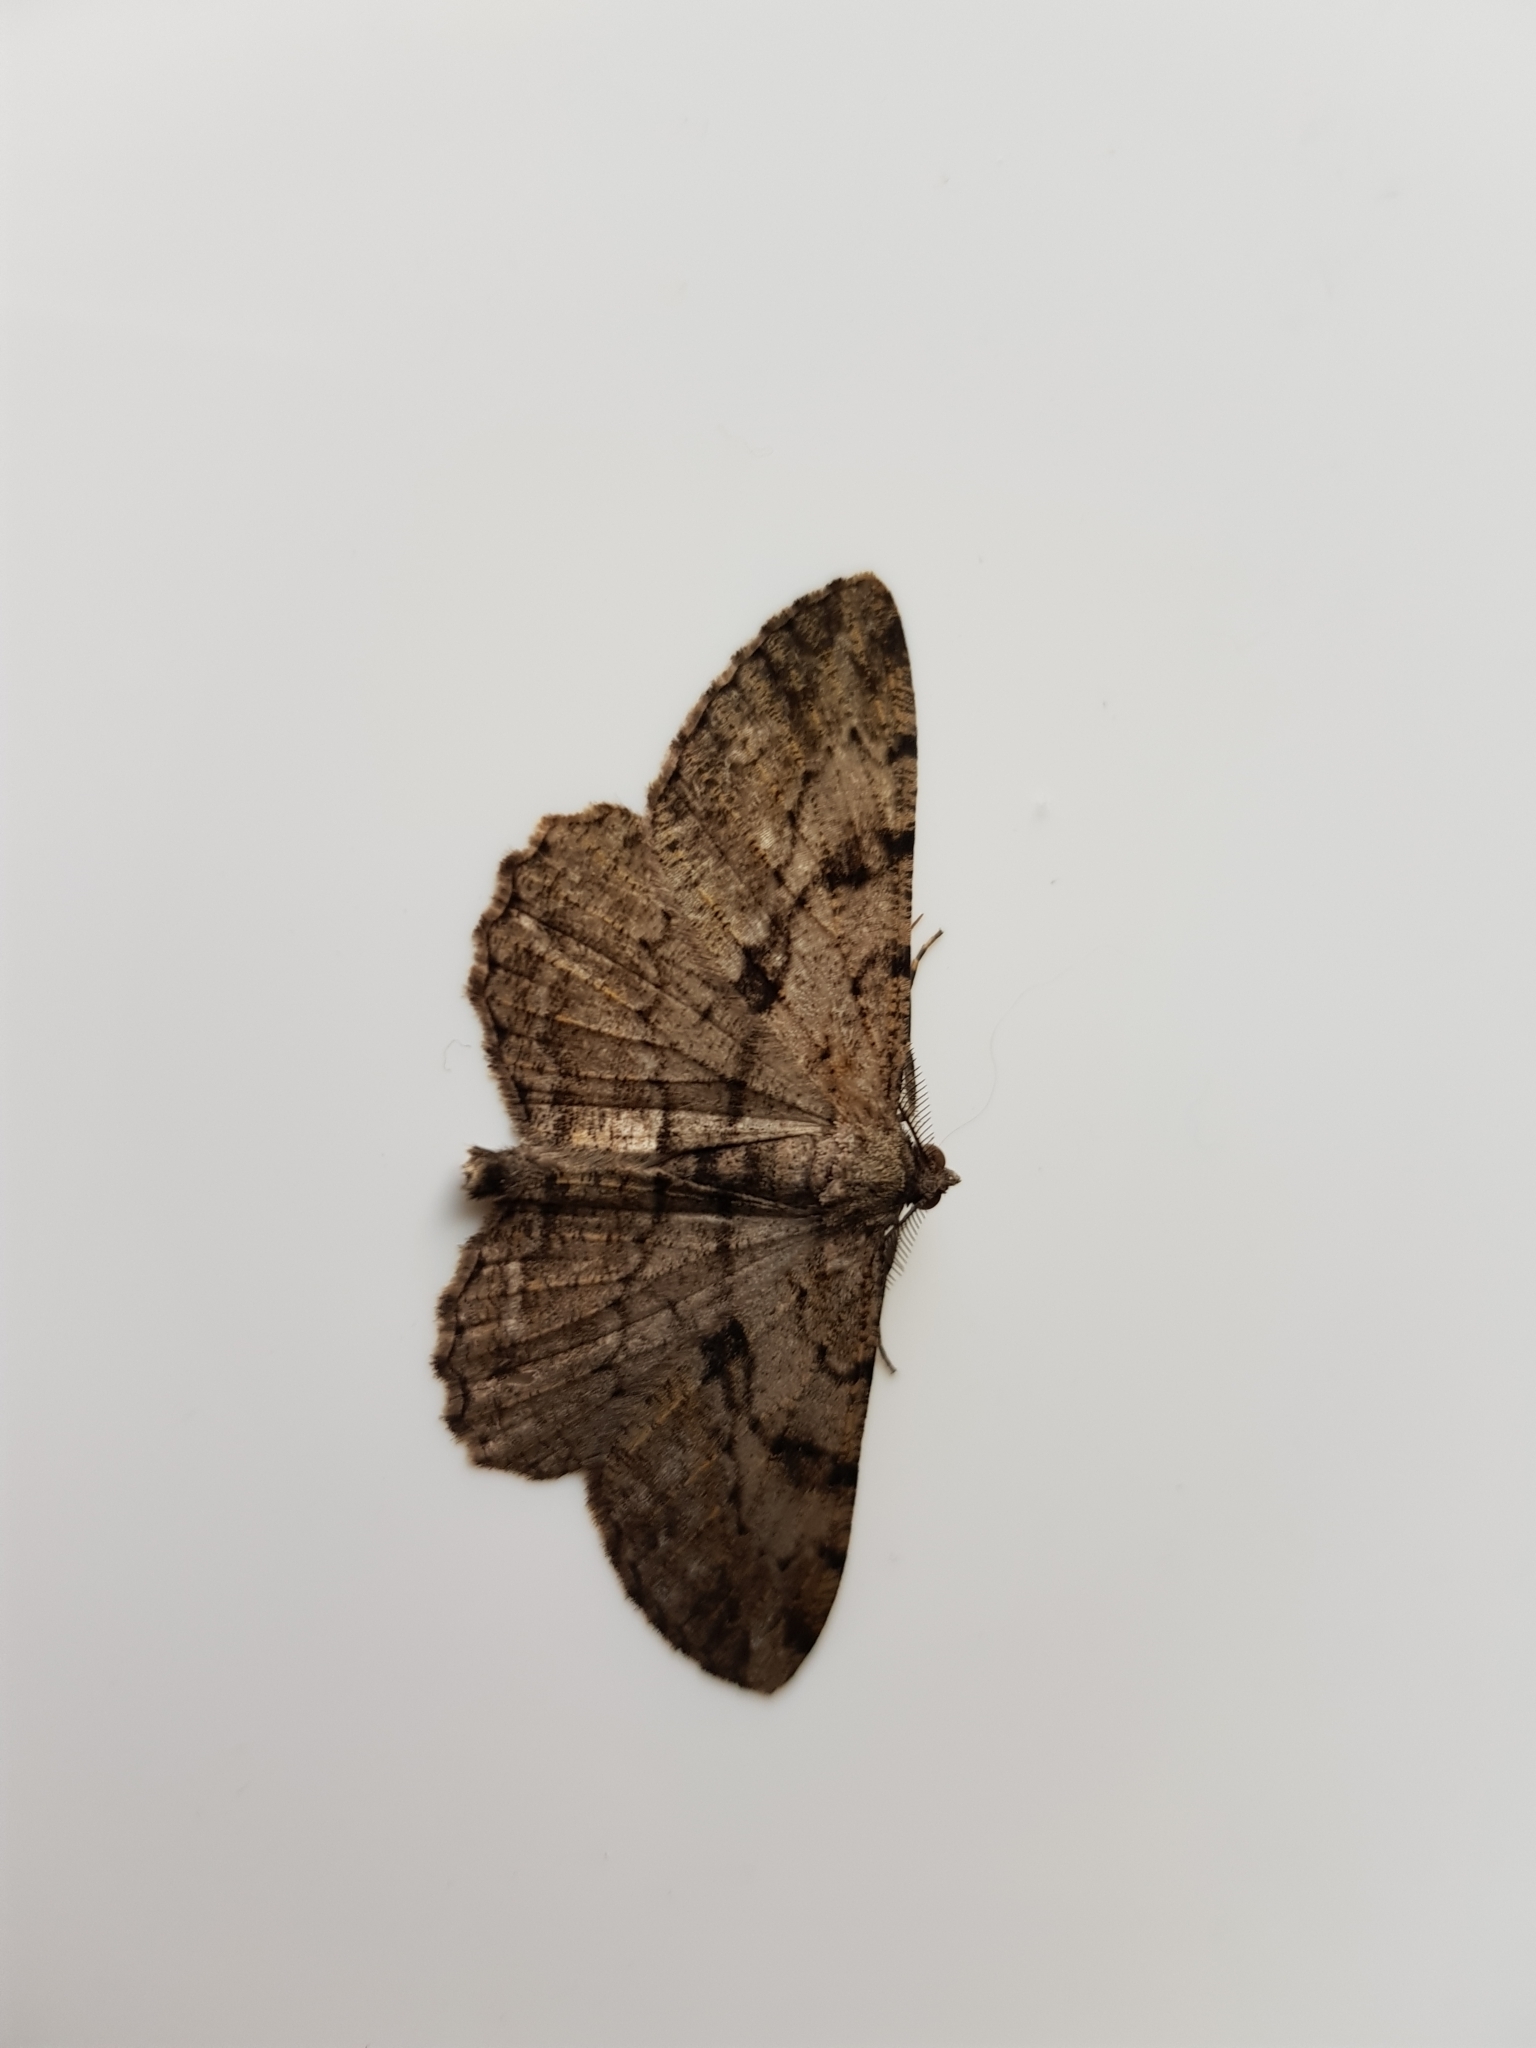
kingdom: Animalia
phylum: Arthropoda
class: Insecta
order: Lepidoptera
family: Geometridae
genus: Peribatodes
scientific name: Peribatodes rhomboidaria
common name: Willow beauty
